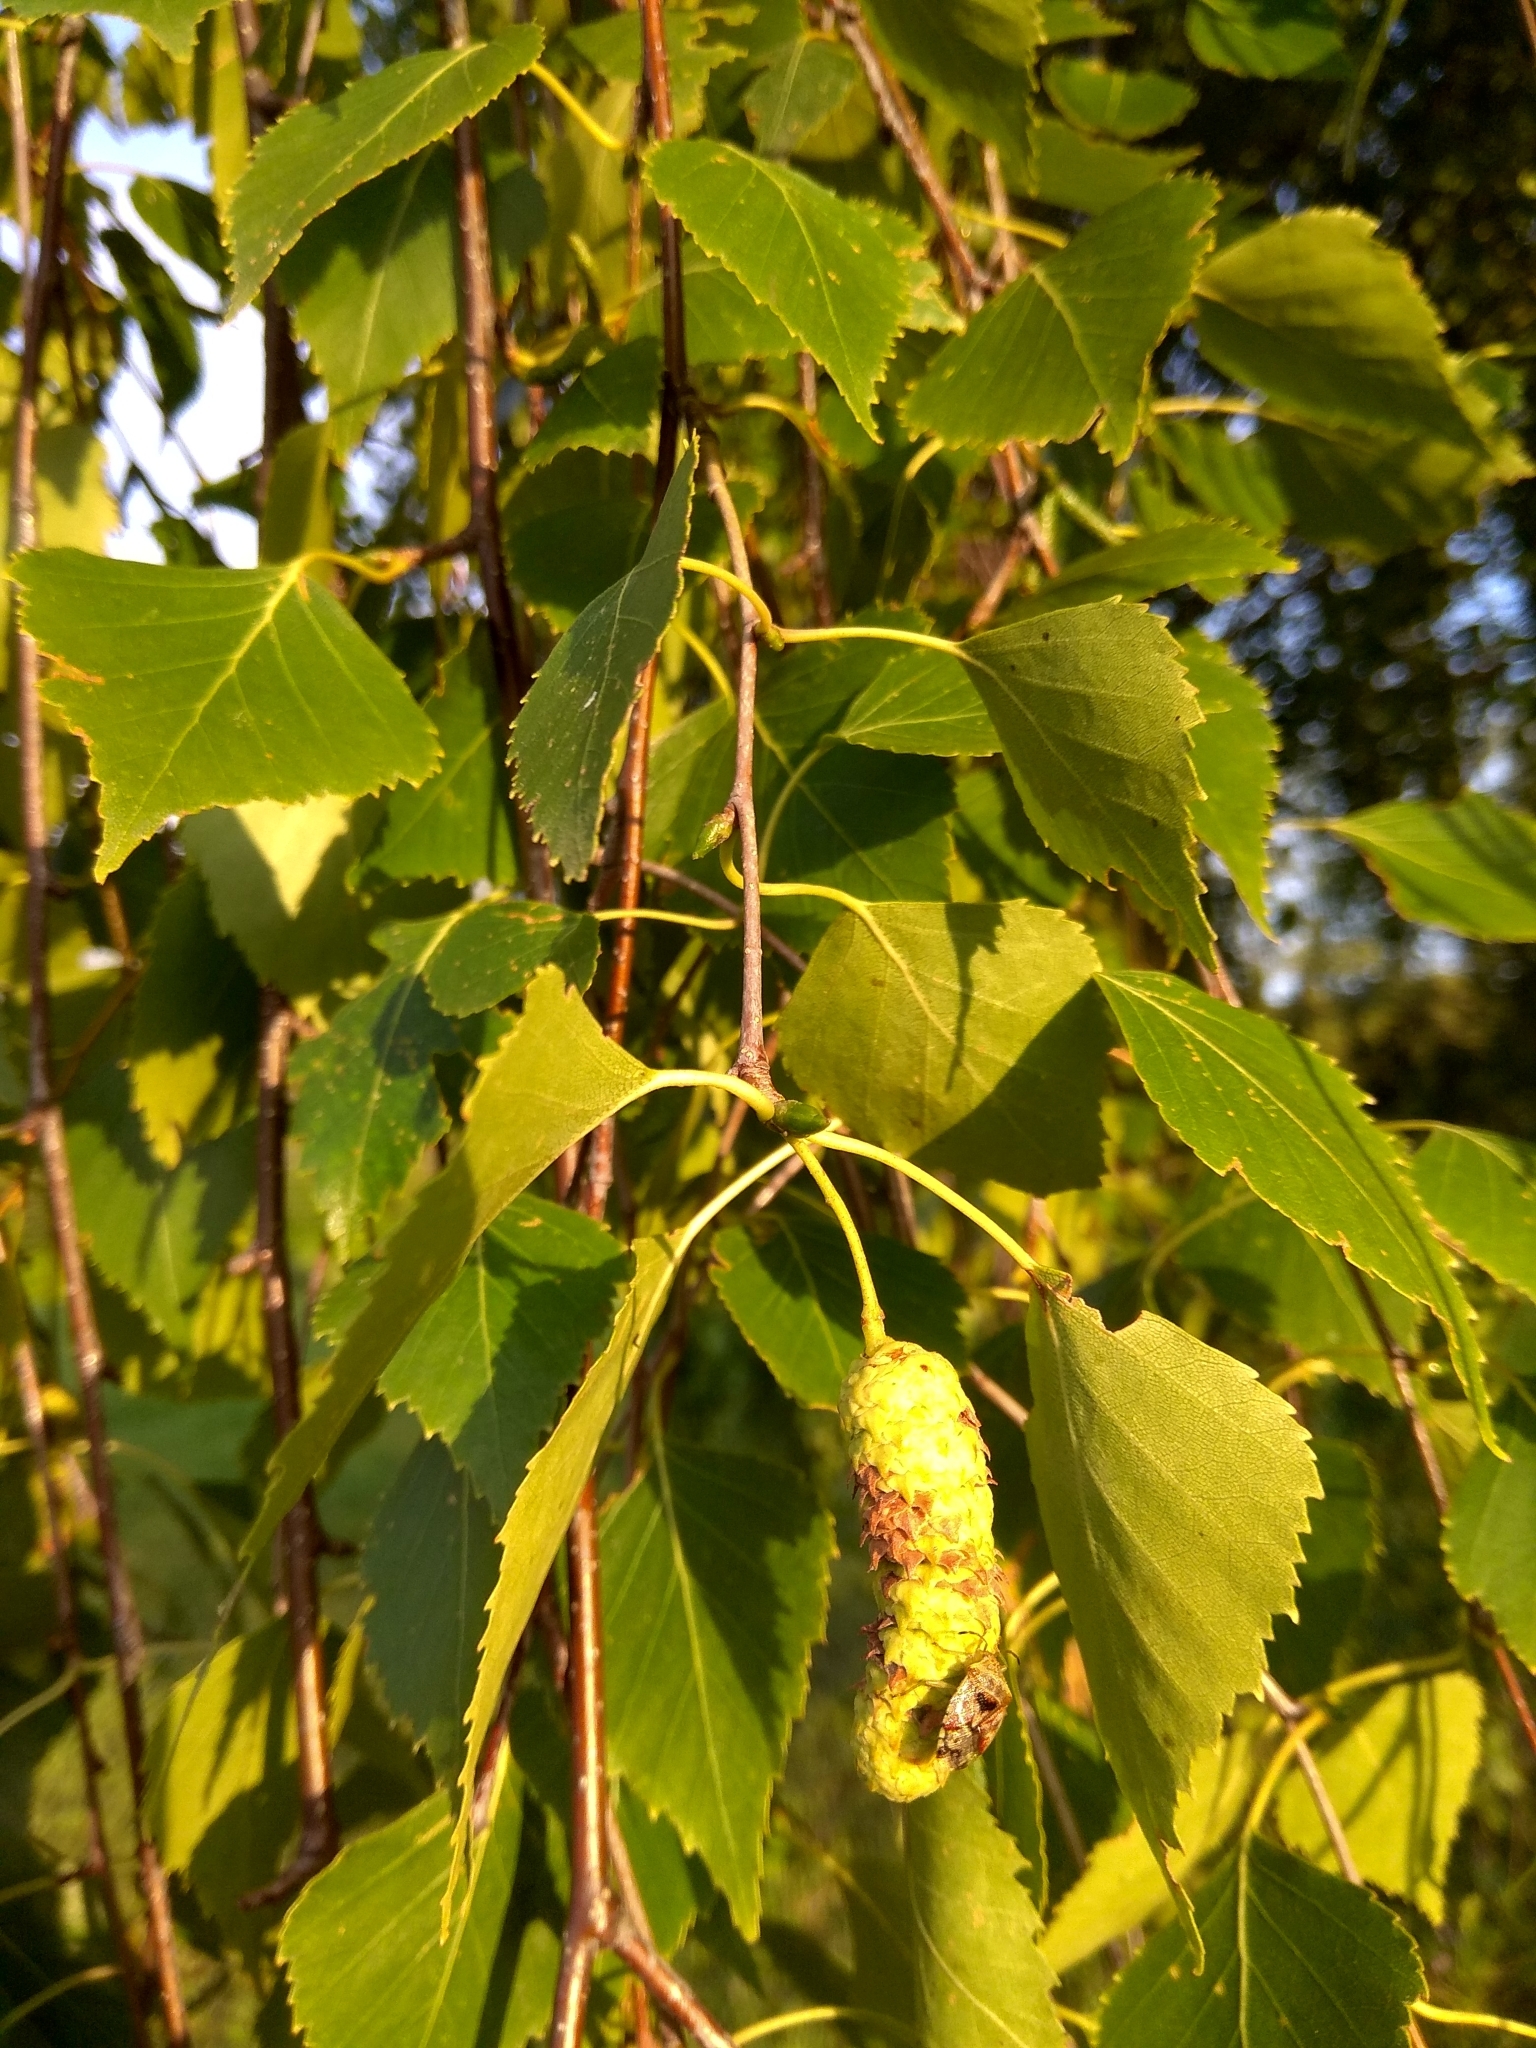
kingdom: Plantae
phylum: Tracheophyta
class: Magnoliopsida
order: Fagales
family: Betulaceae
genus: Betula
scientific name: Betula pendula
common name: Silver birch
